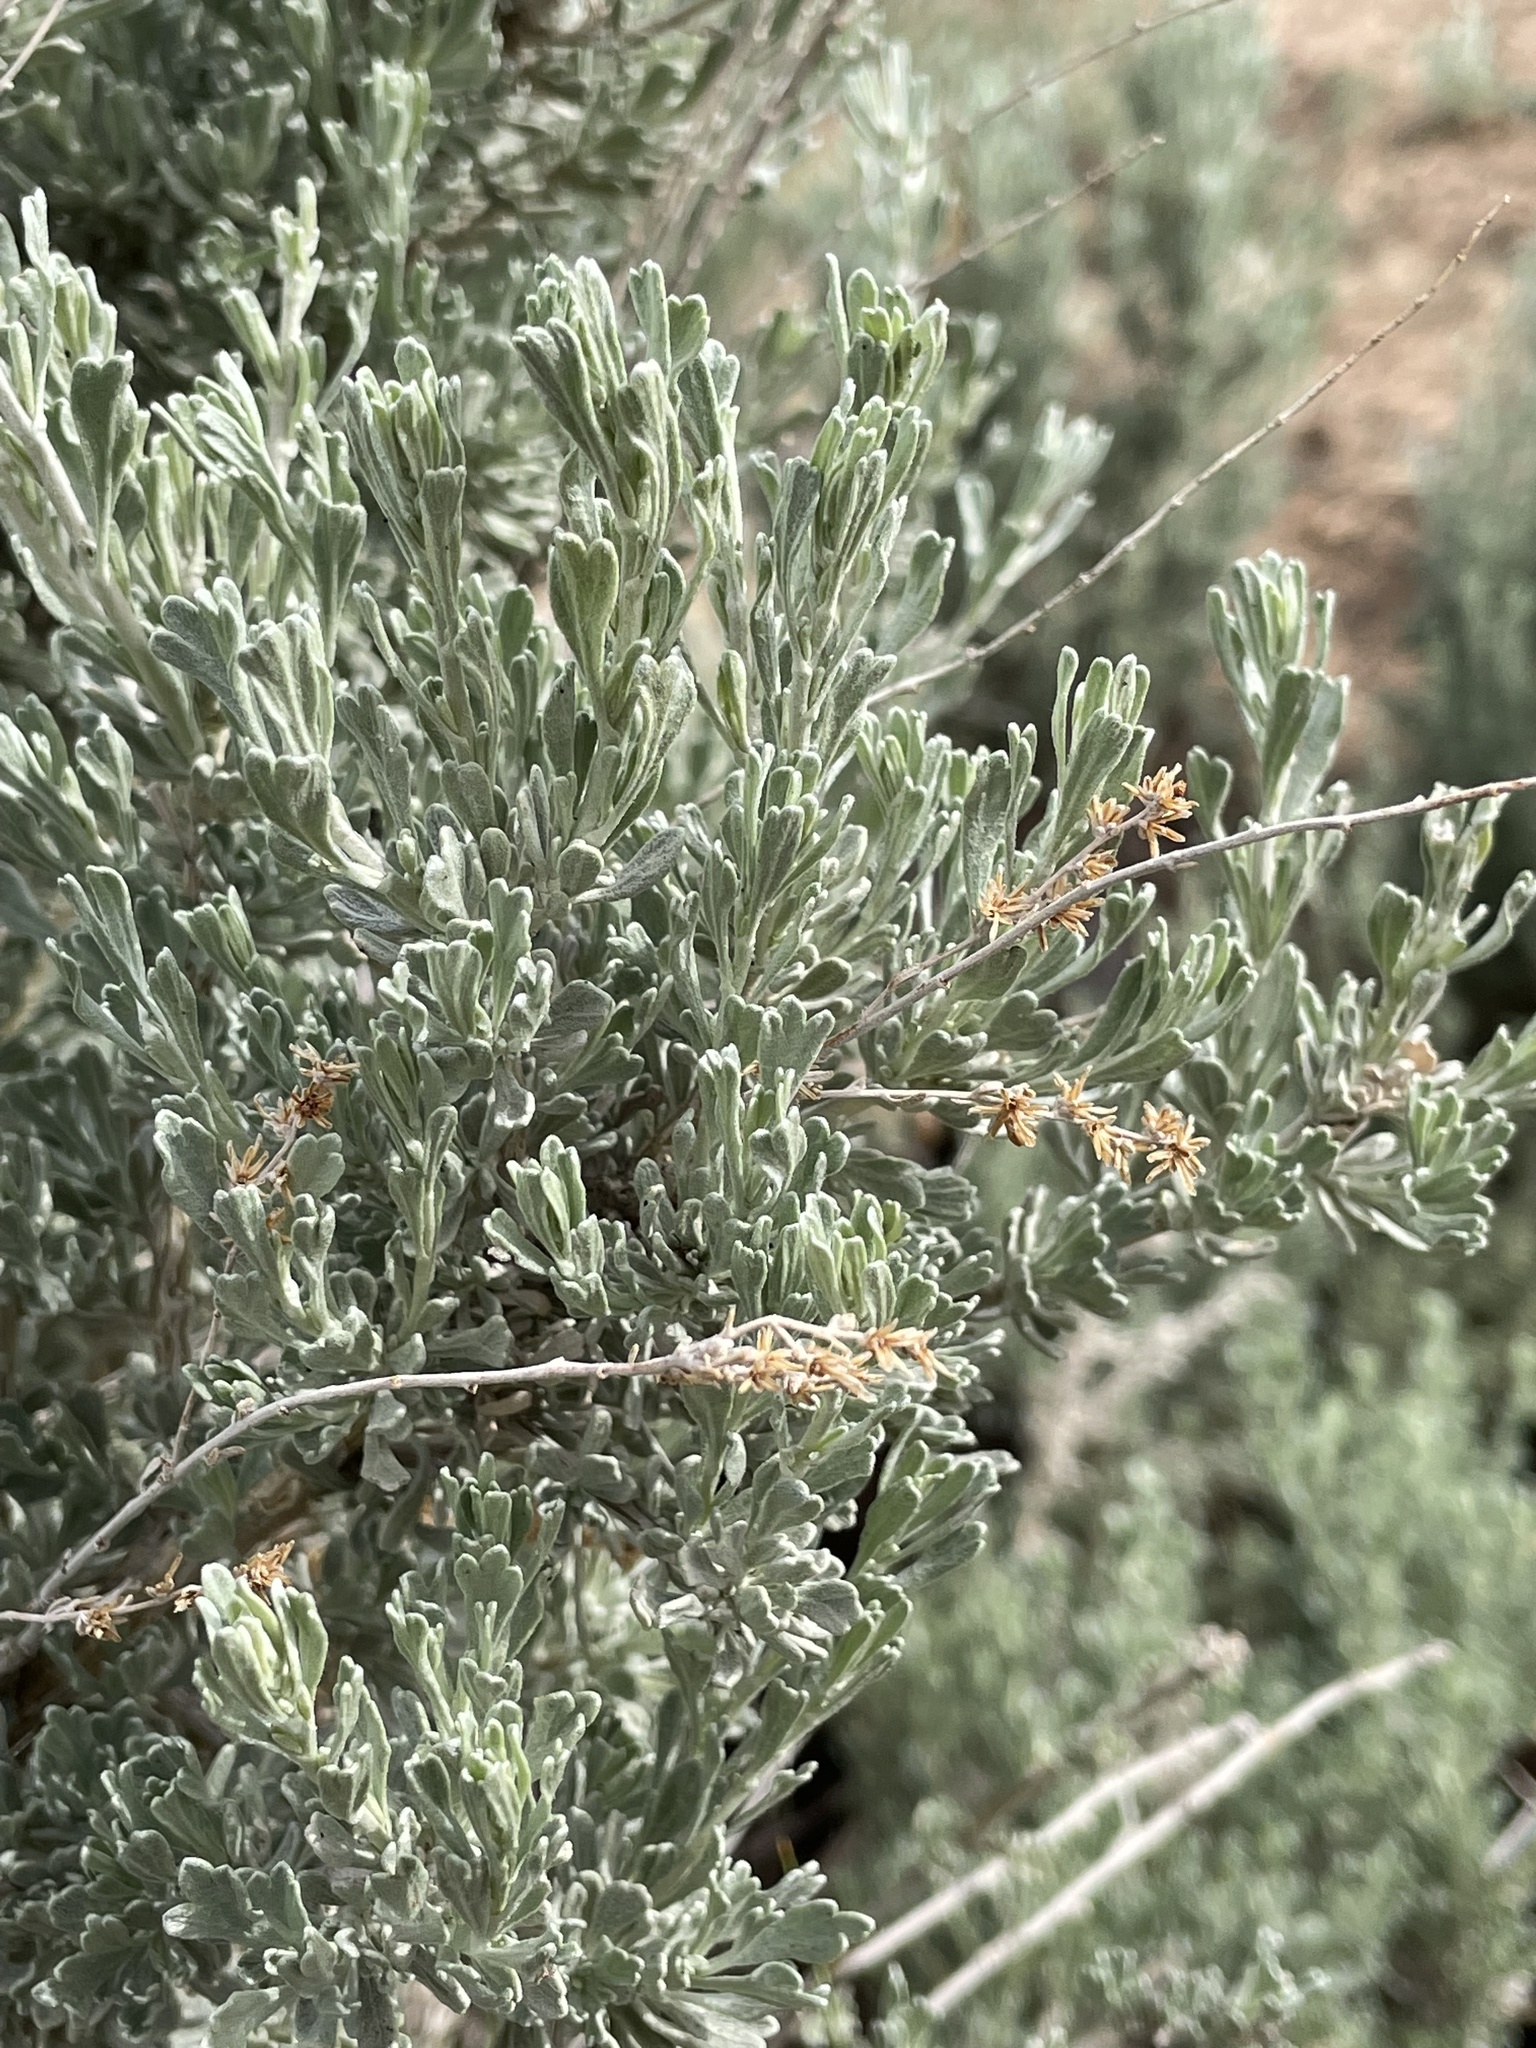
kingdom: Plantae
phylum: Tracheophyta
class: Magnoliopsida
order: Asterales
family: Asteraceae
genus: Artemisia
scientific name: Artemisia tridentata
